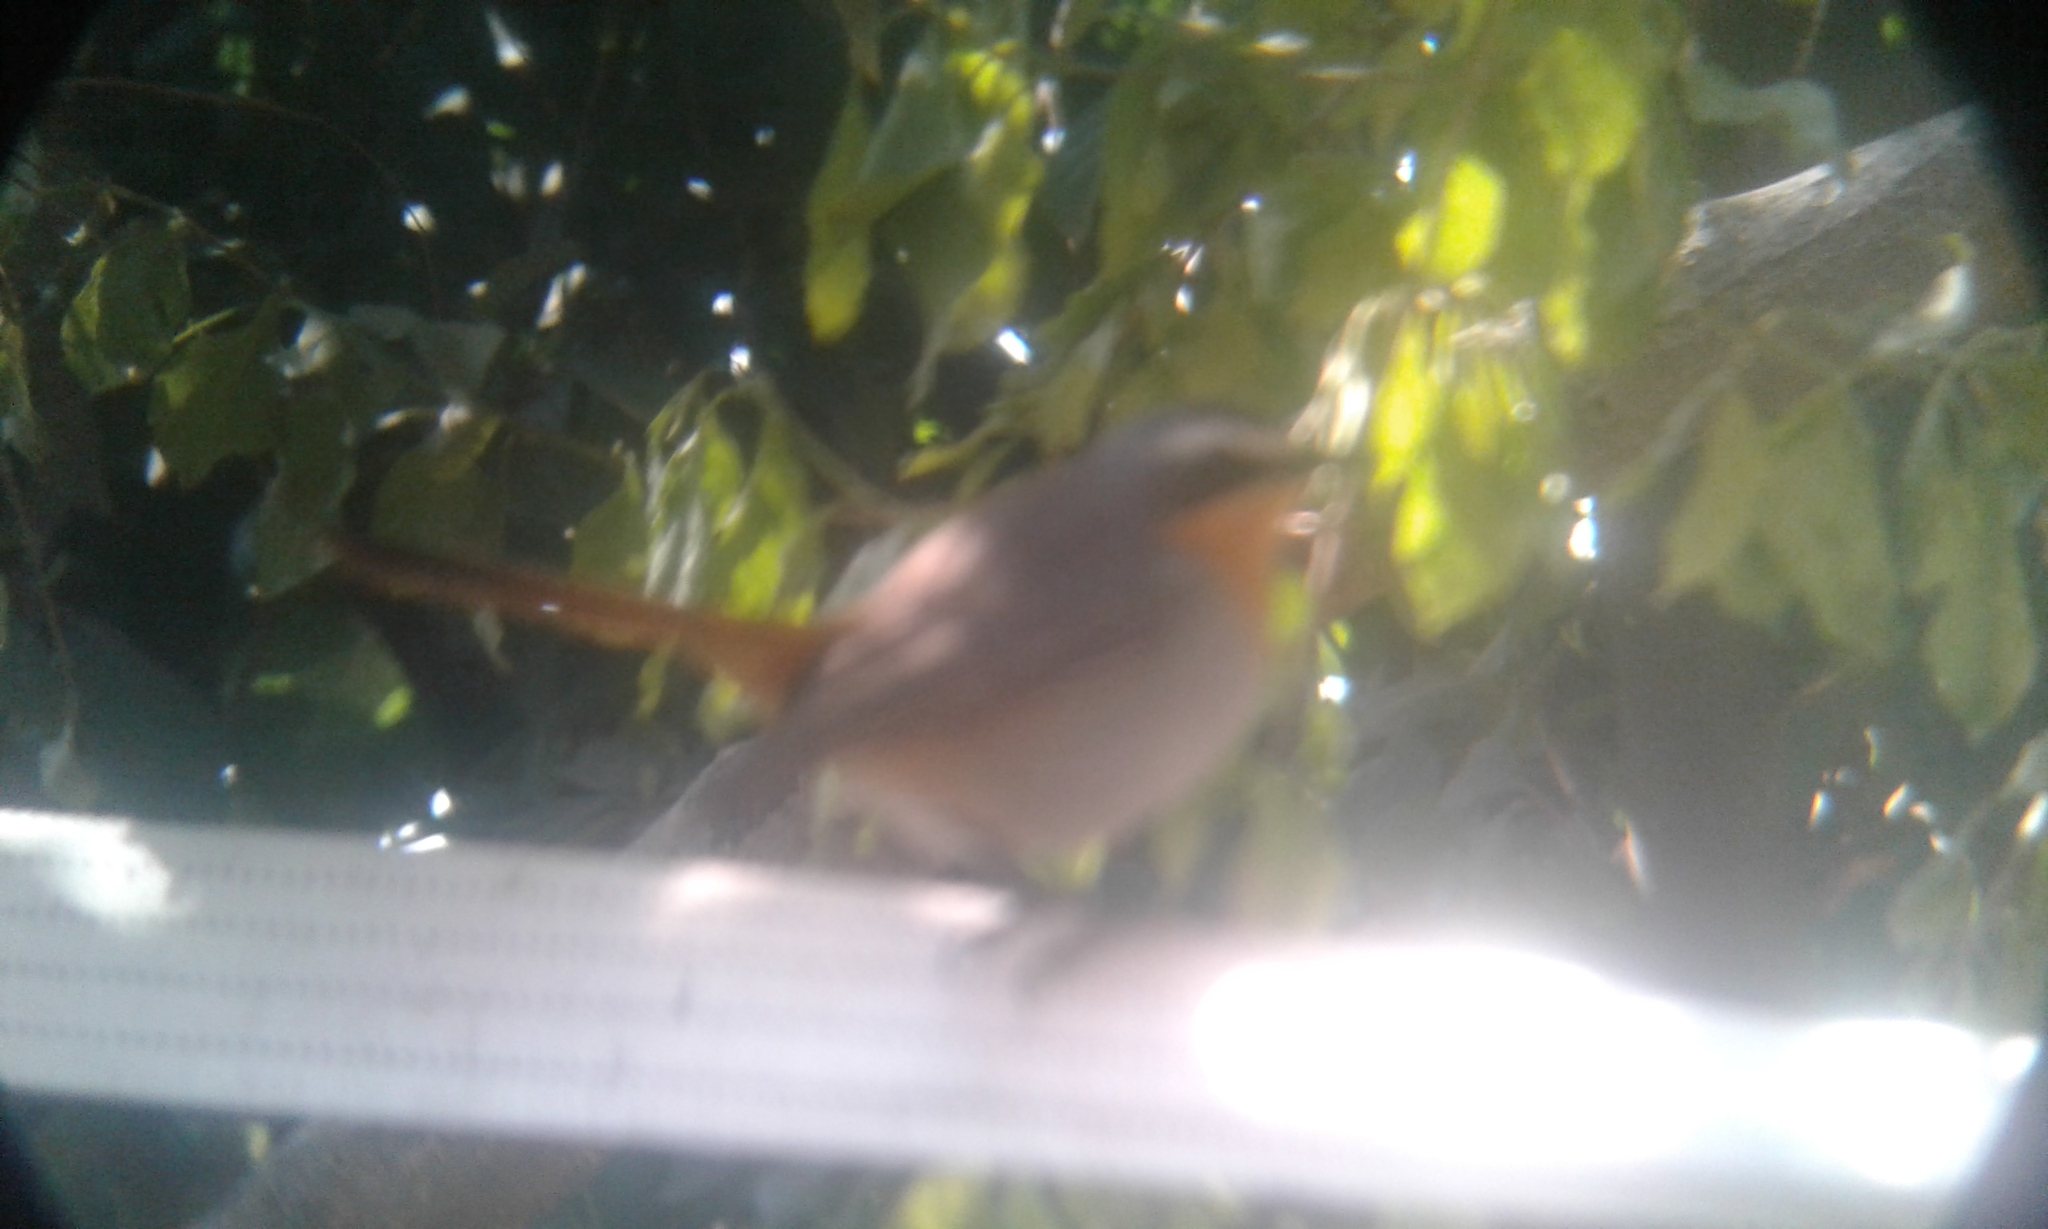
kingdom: Animalia
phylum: Chordata
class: Aves
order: Passeriformes
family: Muscicapidae
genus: Cossypha
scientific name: Cossypha caffra
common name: Cape robin-chat
